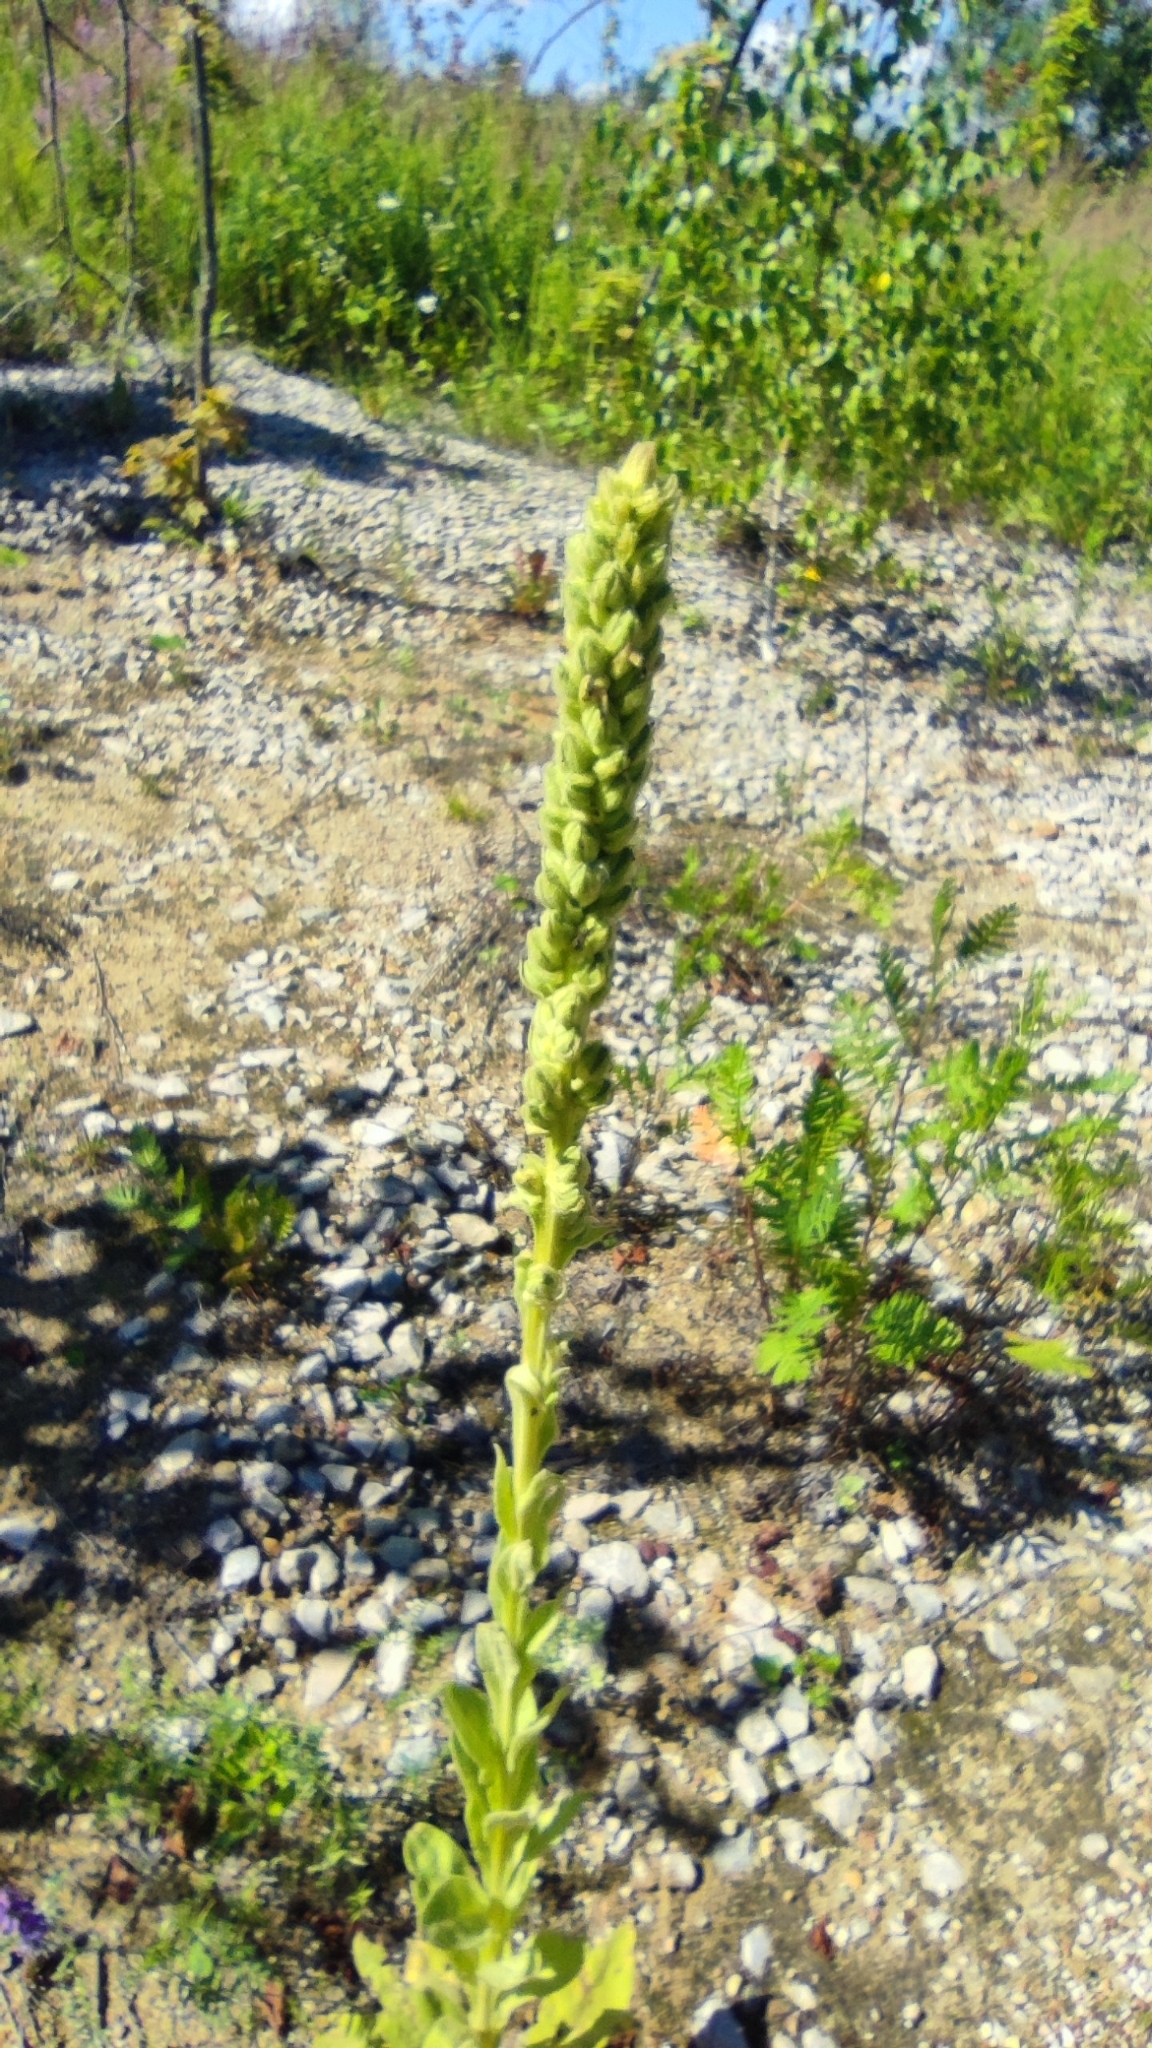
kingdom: Plantae
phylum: Tracheophyta
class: Magnoliopsida
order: Lamiales
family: Scrophulariaceae
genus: Verbascum
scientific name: Verbascum thapsus
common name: Common mullein
